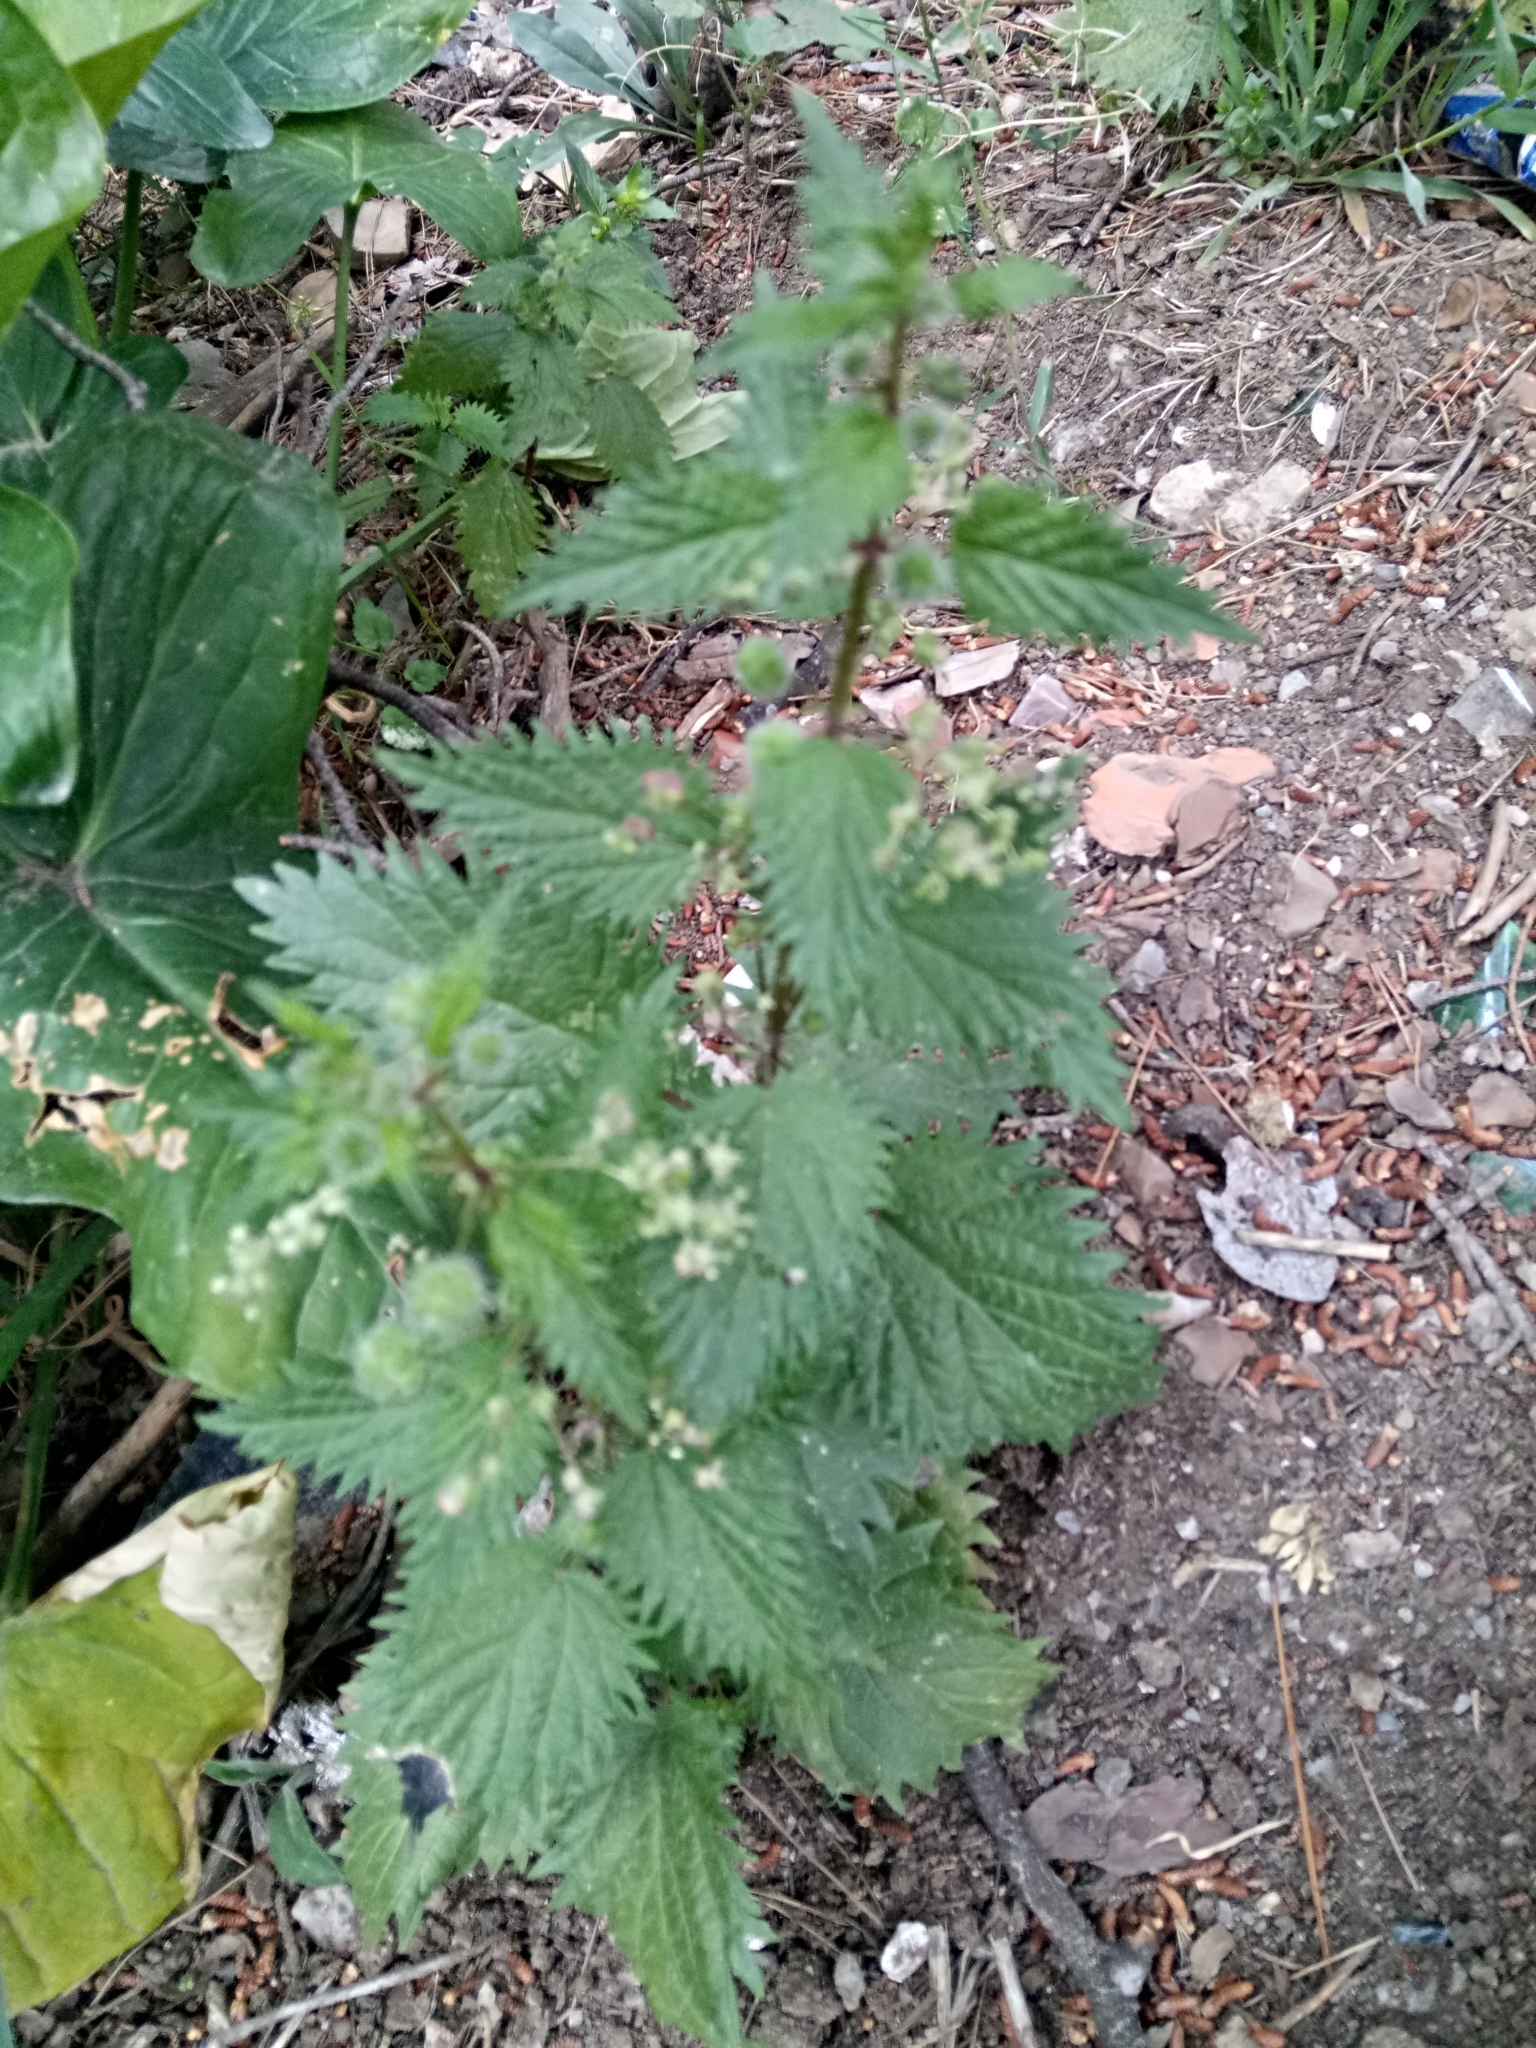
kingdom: Plantae
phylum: Tracheophyta
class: Magnoliopsida
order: Rosales
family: Urticaceae
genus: Urtica
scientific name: Urtica pilulifera
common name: Roman nettle
